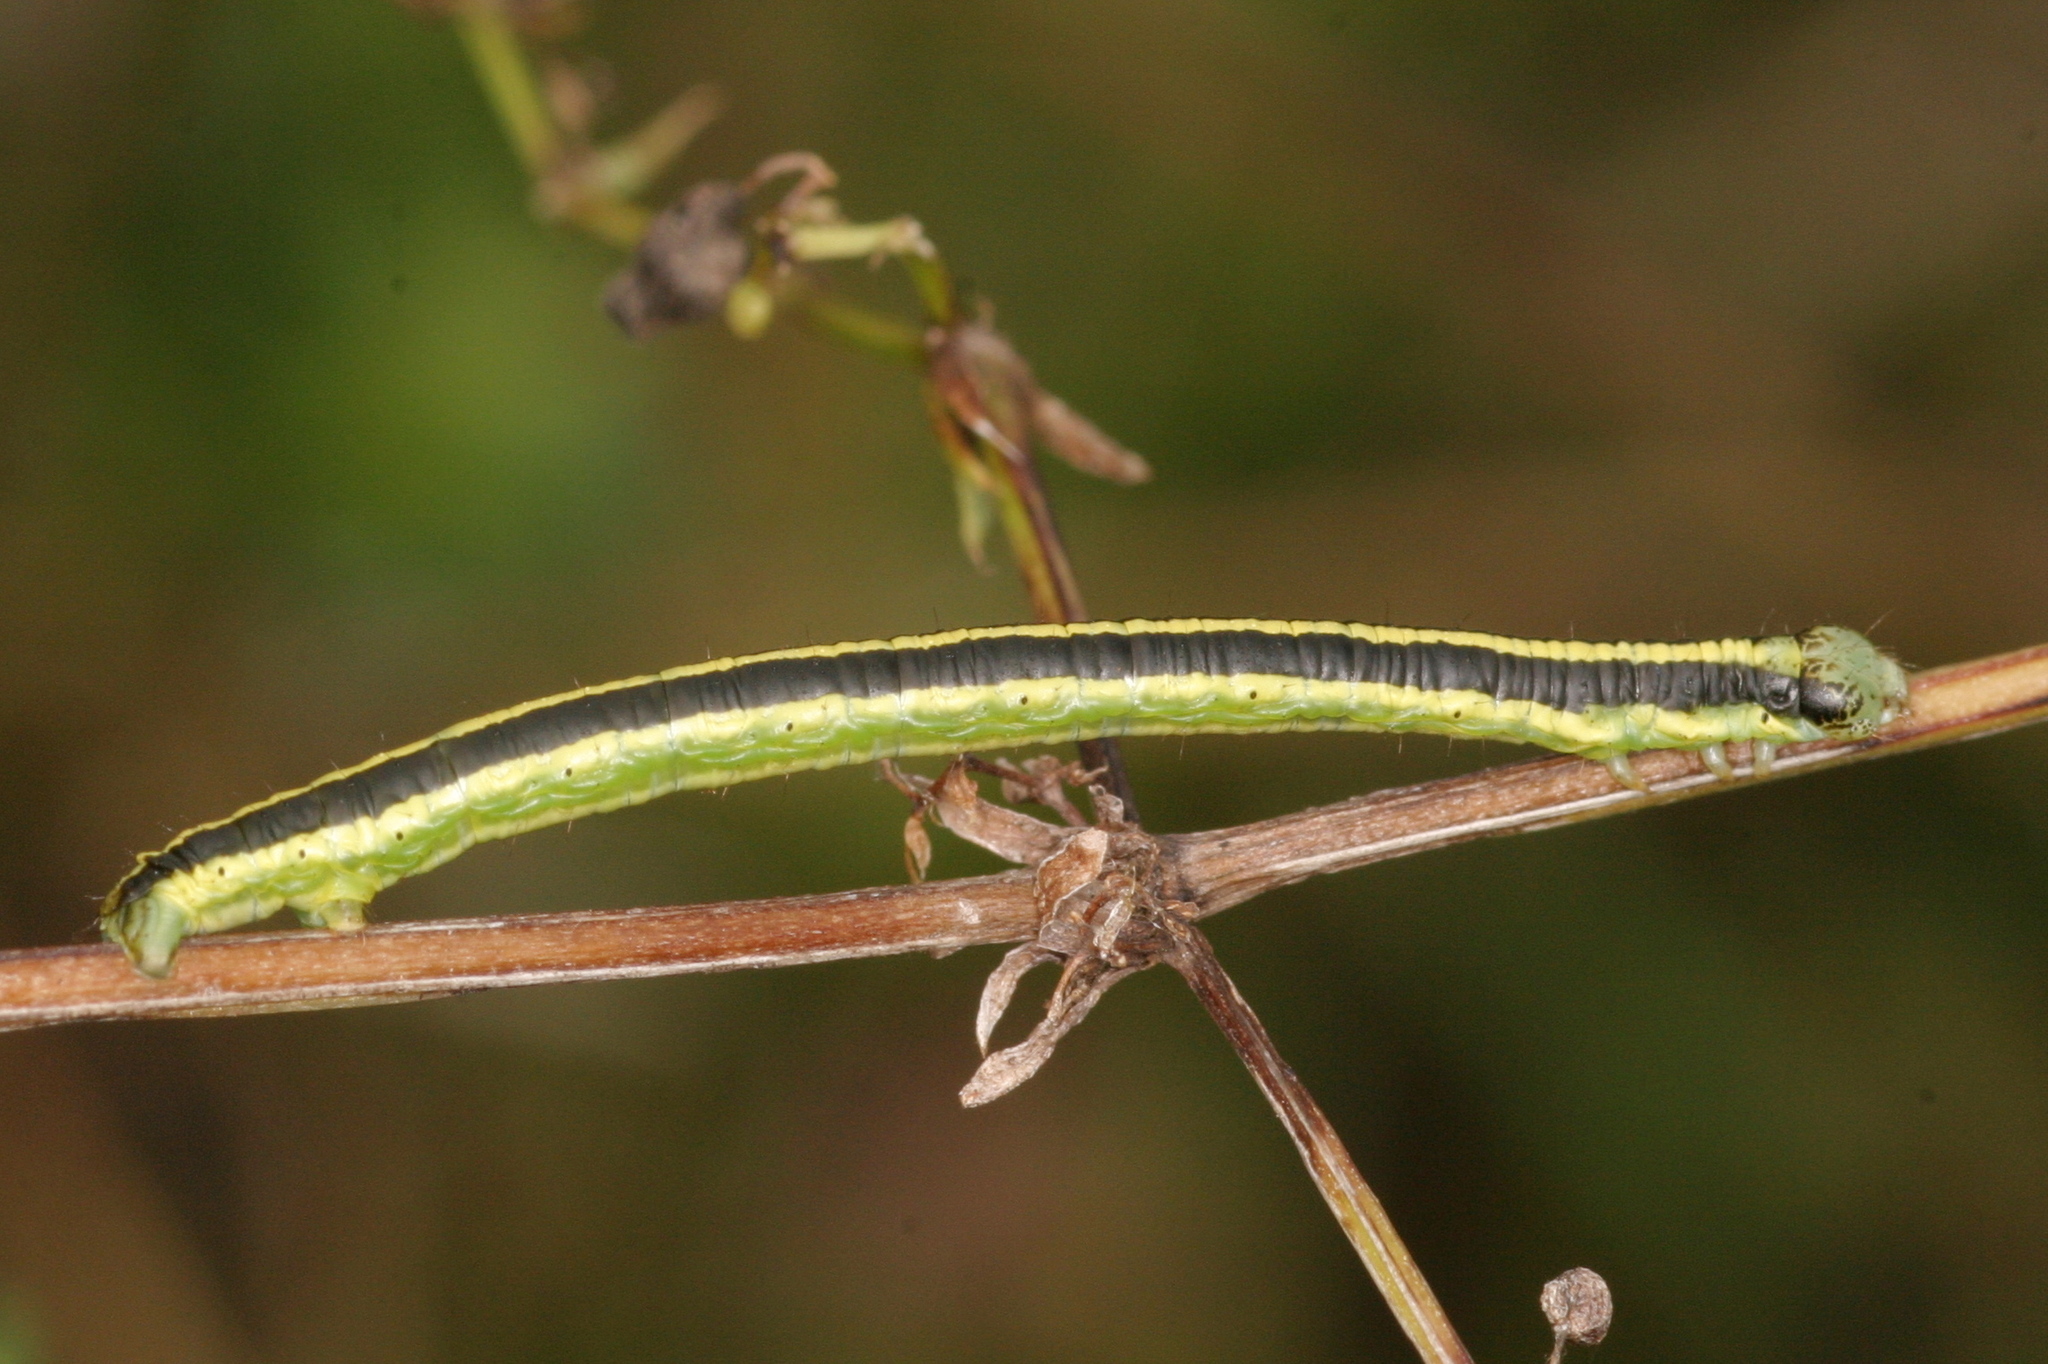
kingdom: Animalia
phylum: Arthropoda
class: Insecta
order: Lepidoptera
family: Geometridae
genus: Catarhoe
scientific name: Catarhoe cuculata
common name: Royal mantle
